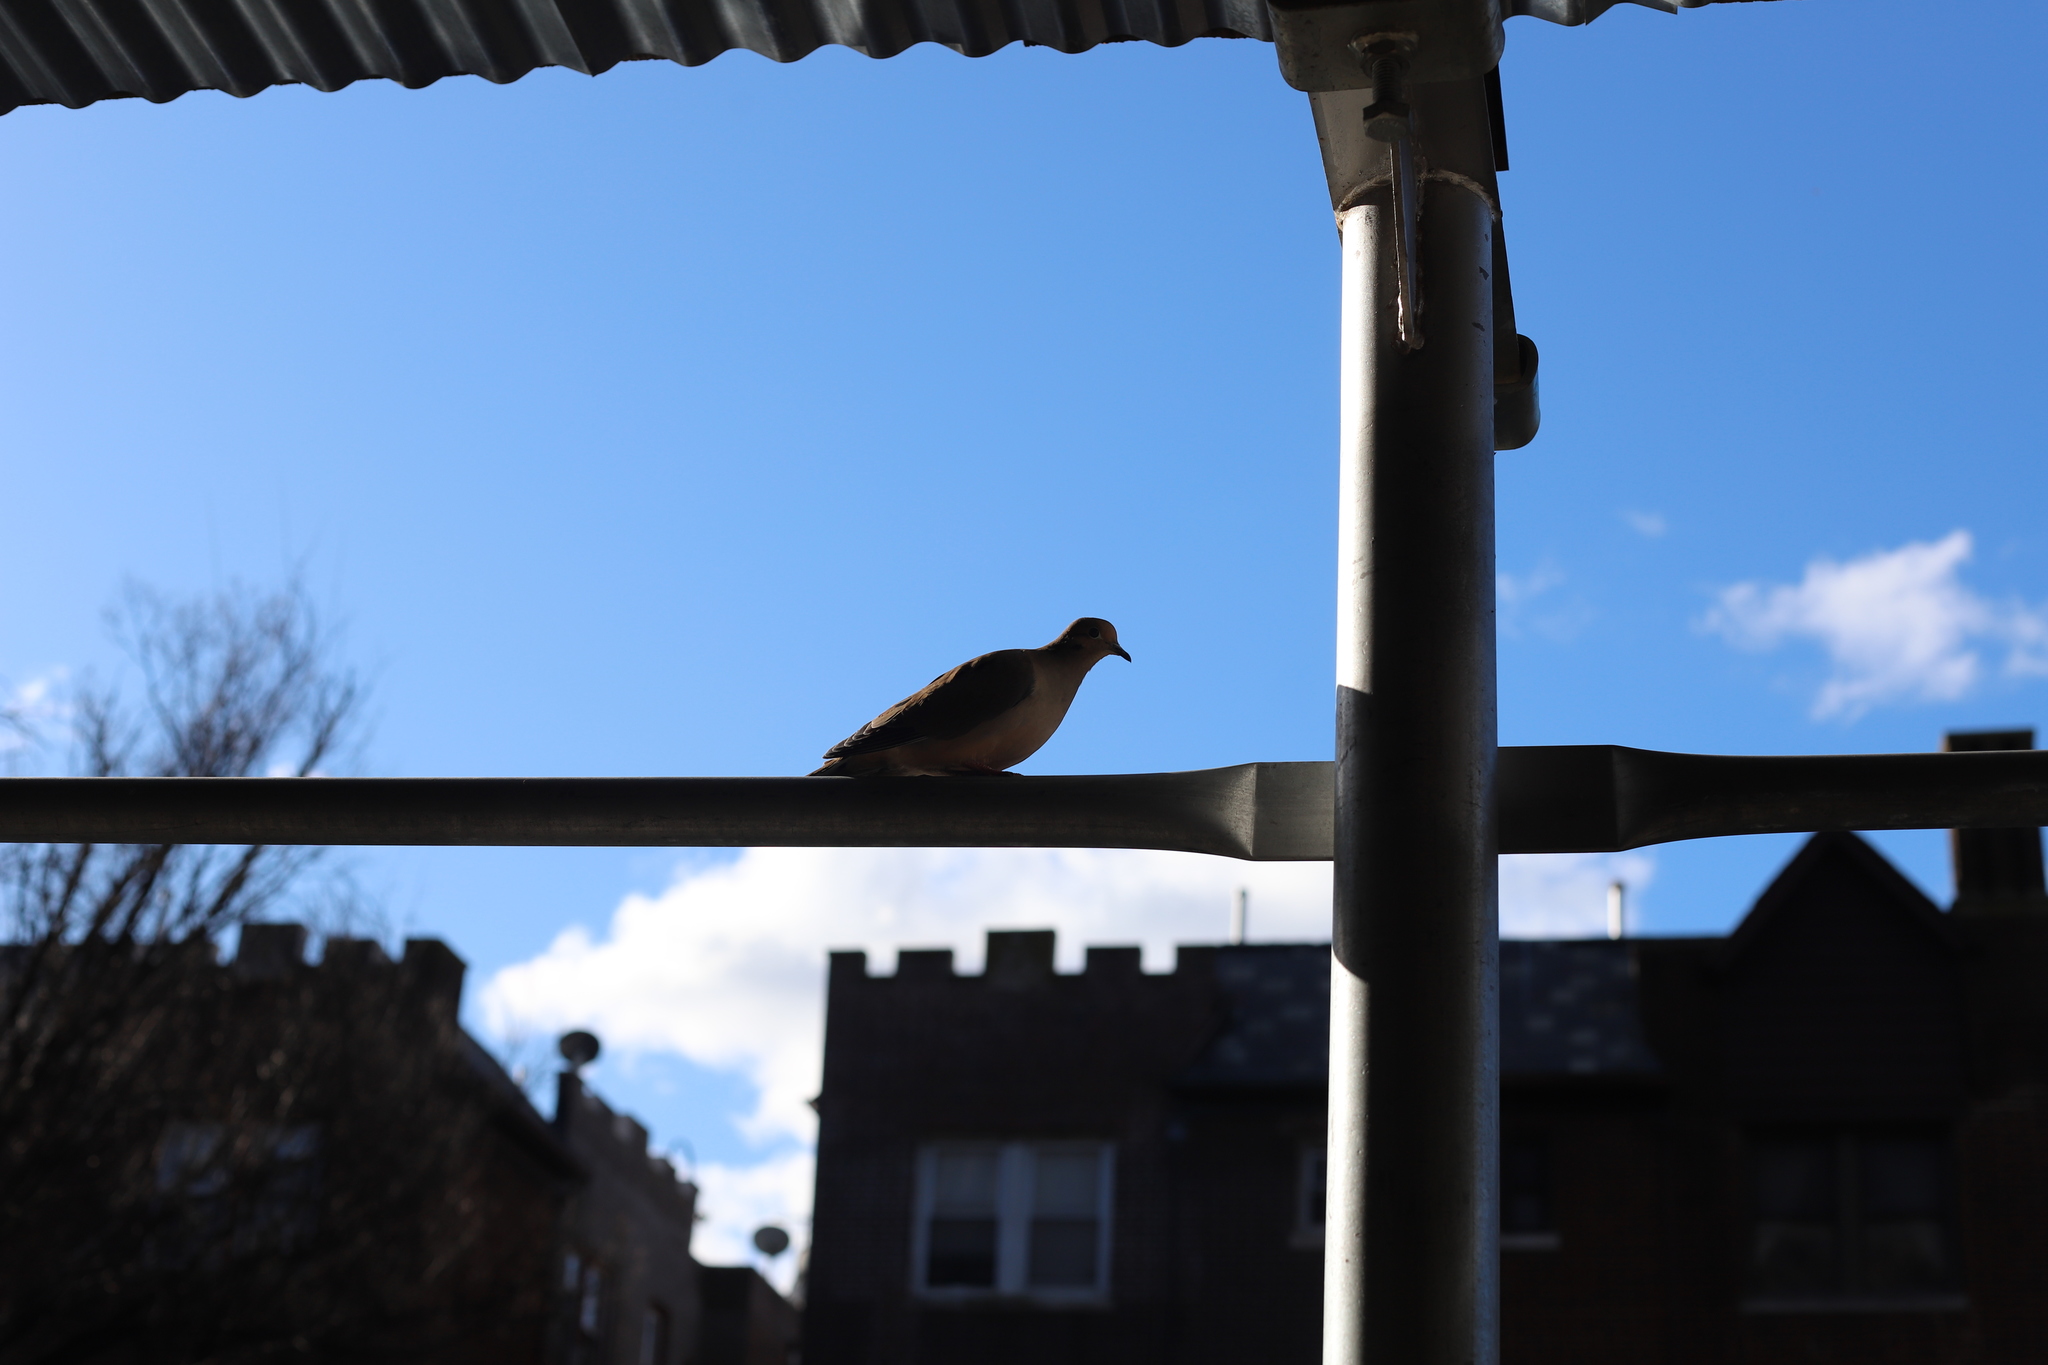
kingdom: Animalia
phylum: Chordata
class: Aves
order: Columbiformes
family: Columbidae
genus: Zenaida
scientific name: Zenaida macroura
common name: Mourning dove
